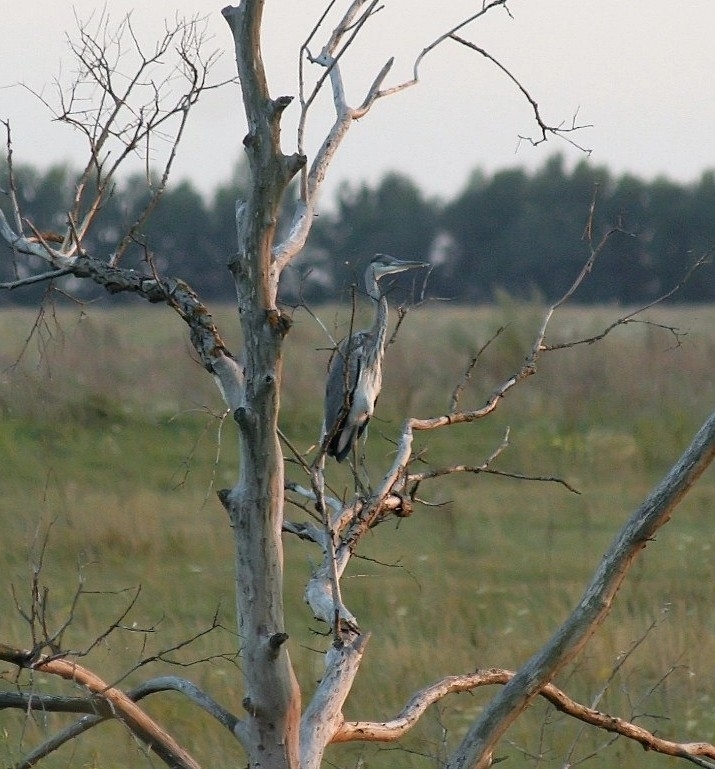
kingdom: Animalia
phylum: Chordata
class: Aves
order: Pelecaniformes
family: Ardeidae
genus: Ardea
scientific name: Ardea cinerea
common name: Grey heron
